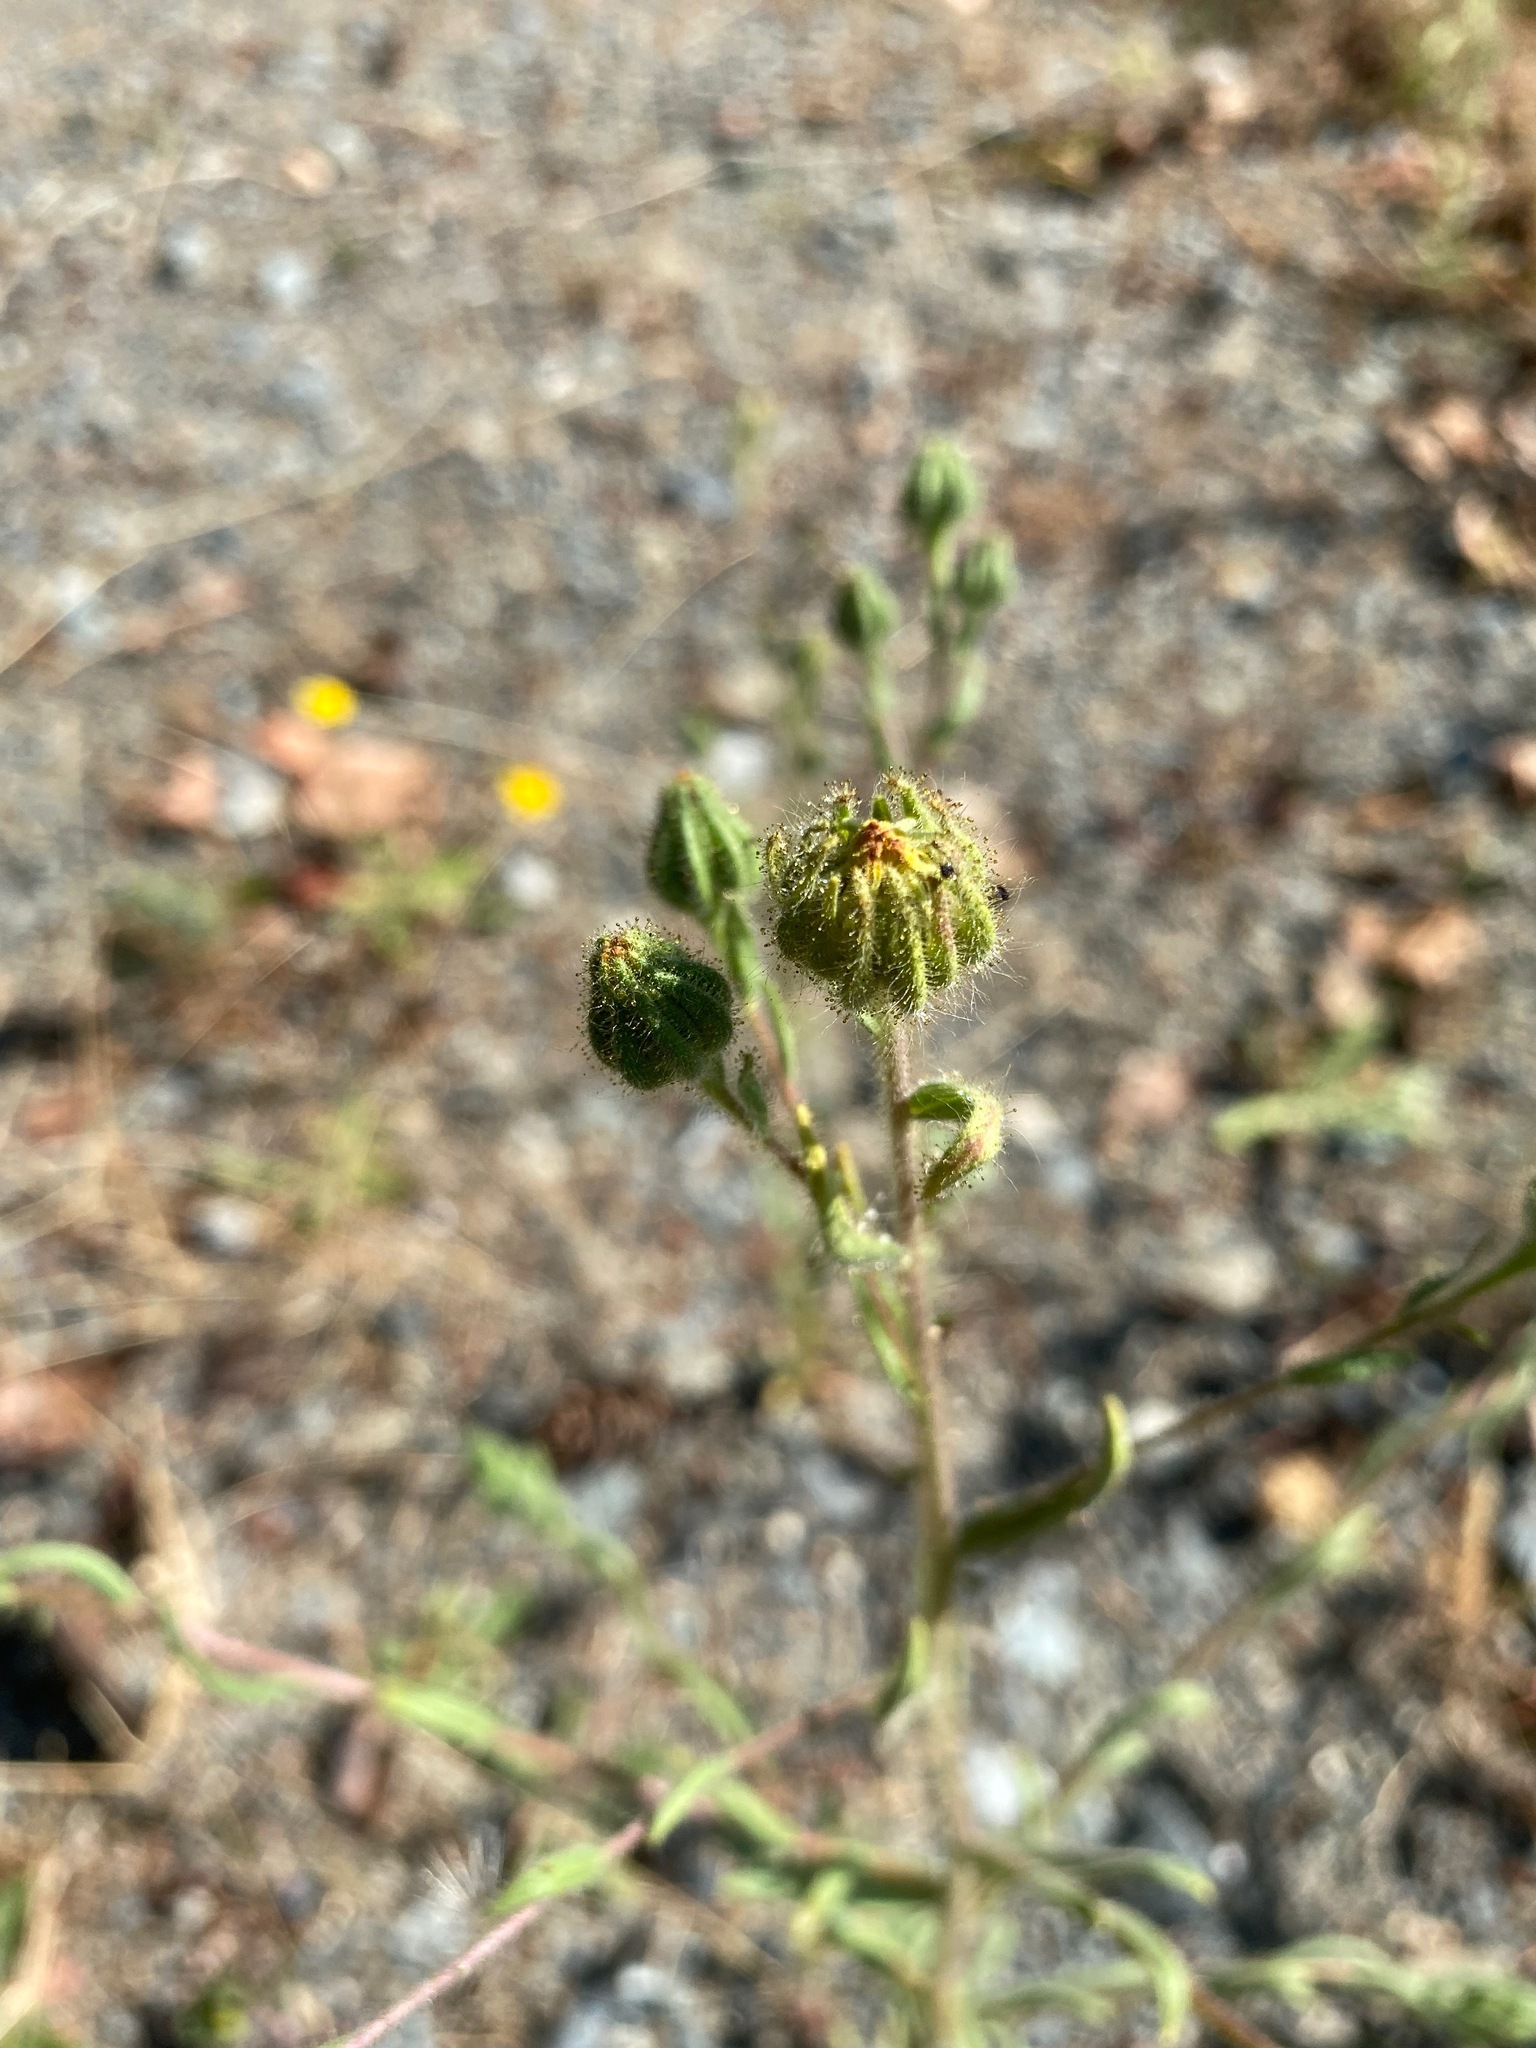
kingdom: Plantae
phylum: Tracheophyta
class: Magnoliopsida
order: Asterales
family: Asteraceae
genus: Madia
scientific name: Madia gracilis
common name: Grassy tarweed
